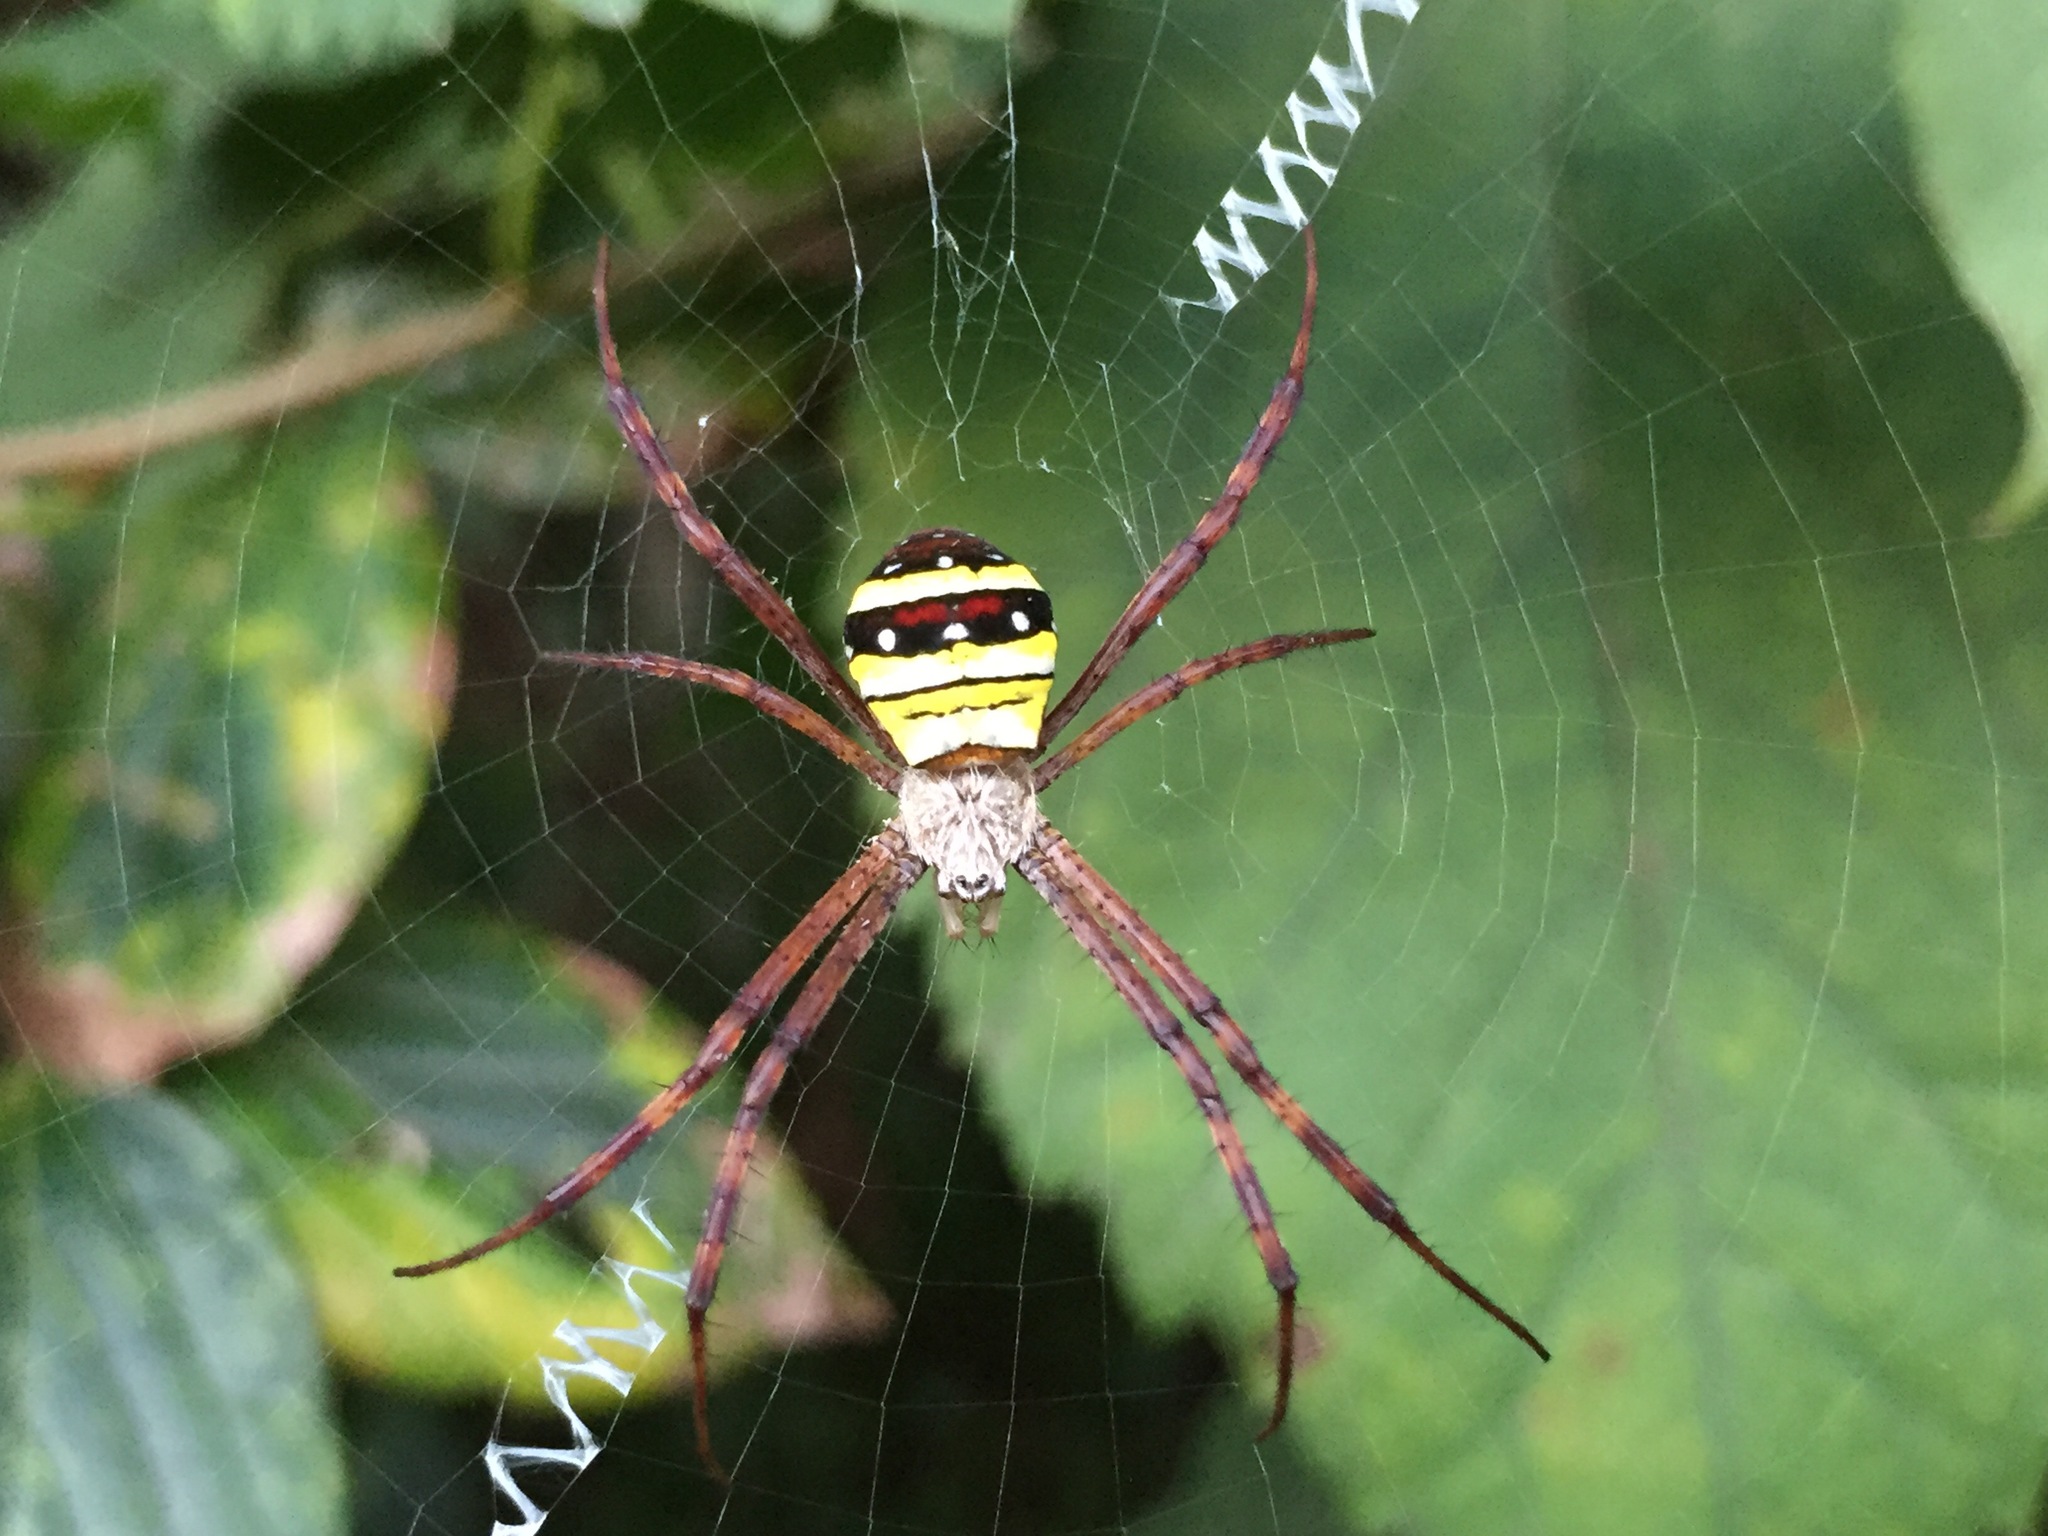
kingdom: Animalia
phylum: Arthropoda
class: Arachnida
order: Araneae
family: Araneidae
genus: Argiope
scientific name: Argiope minuta
